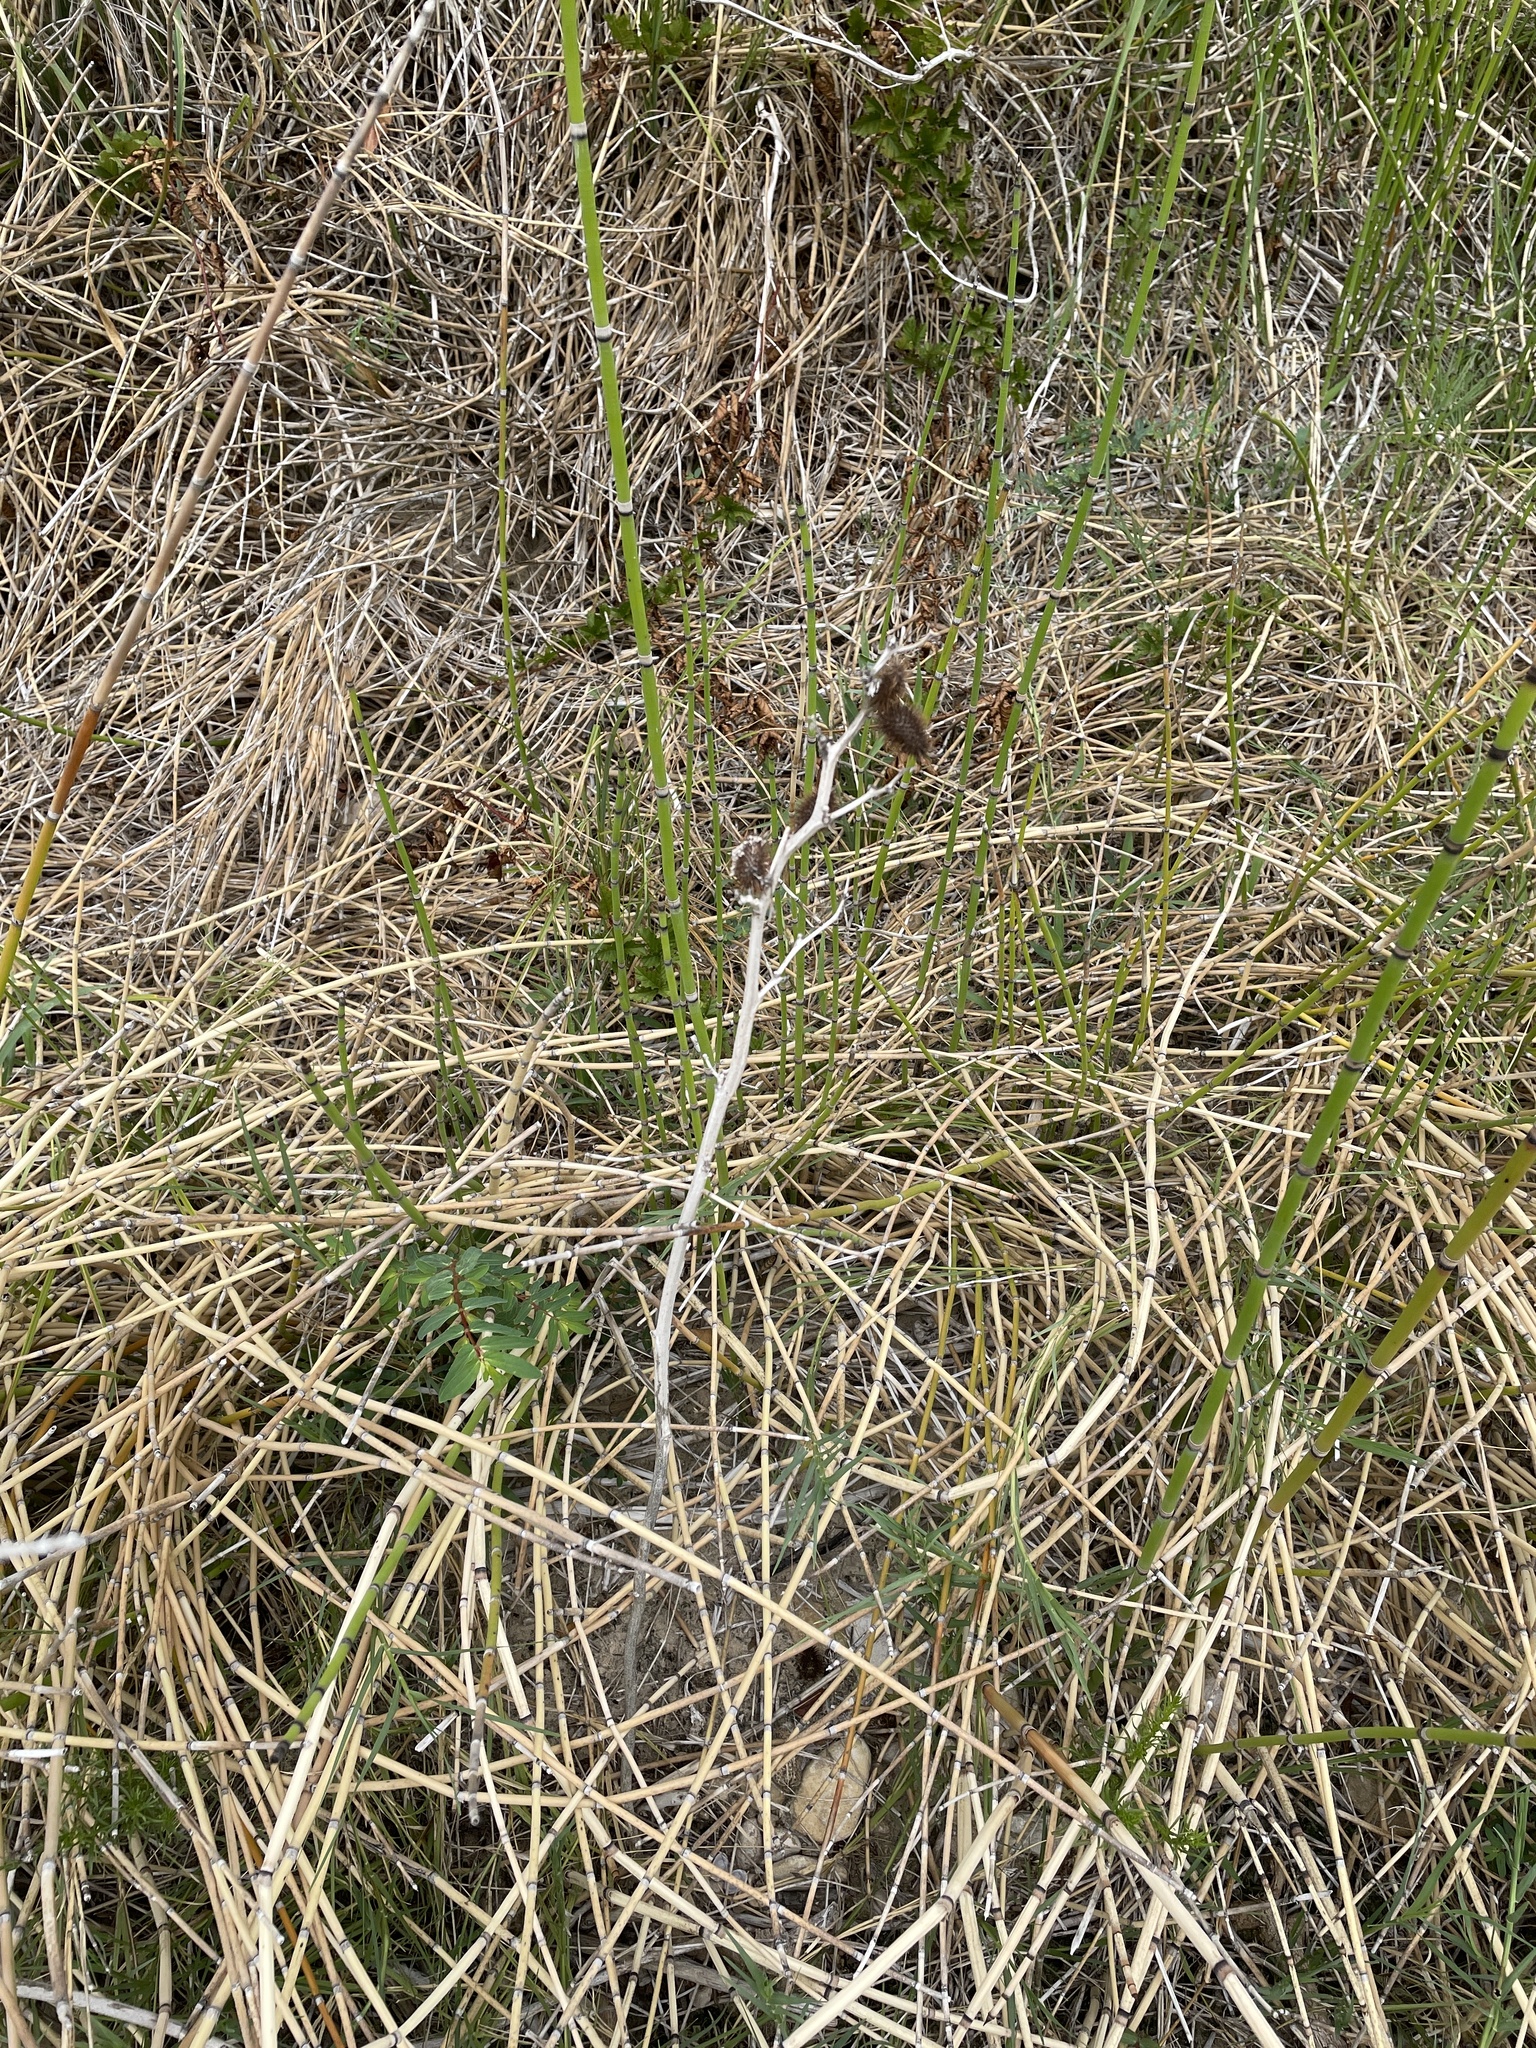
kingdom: Plantae
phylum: Tracheophyta
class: Magnoliopsida
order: Asterales
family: Asteraceae
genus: Xanthium
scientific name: Xanthium strumarium
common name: Rough cocklebur
